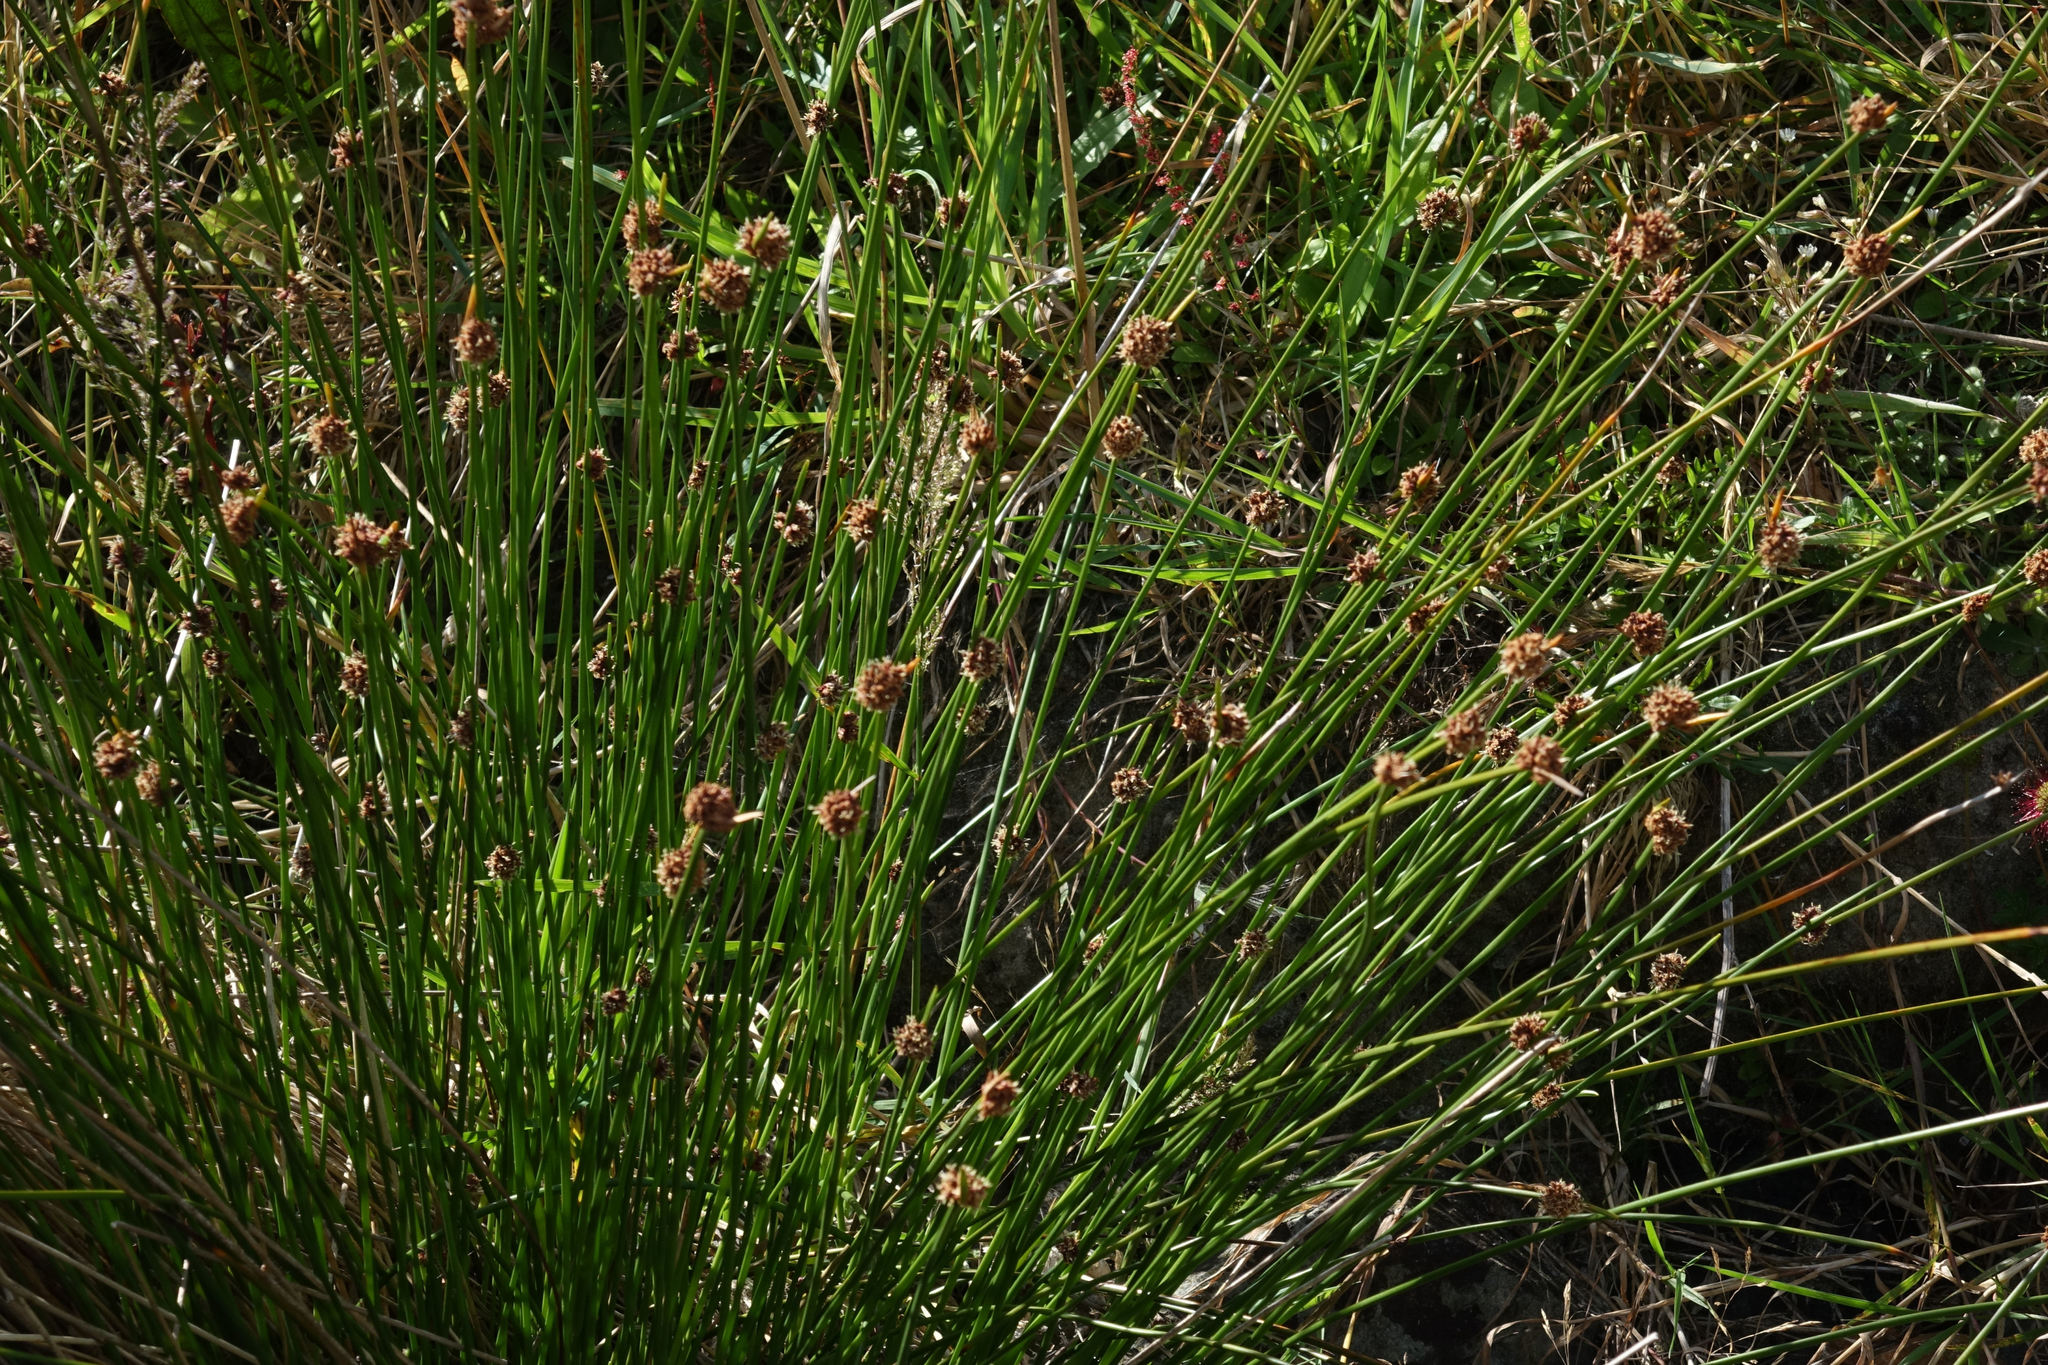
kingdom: Plantae
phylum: Tracheophyta
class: Liliopsida
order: Poales
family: Cyperaceae
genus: Ficinia
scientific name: Ficinia nodosa
